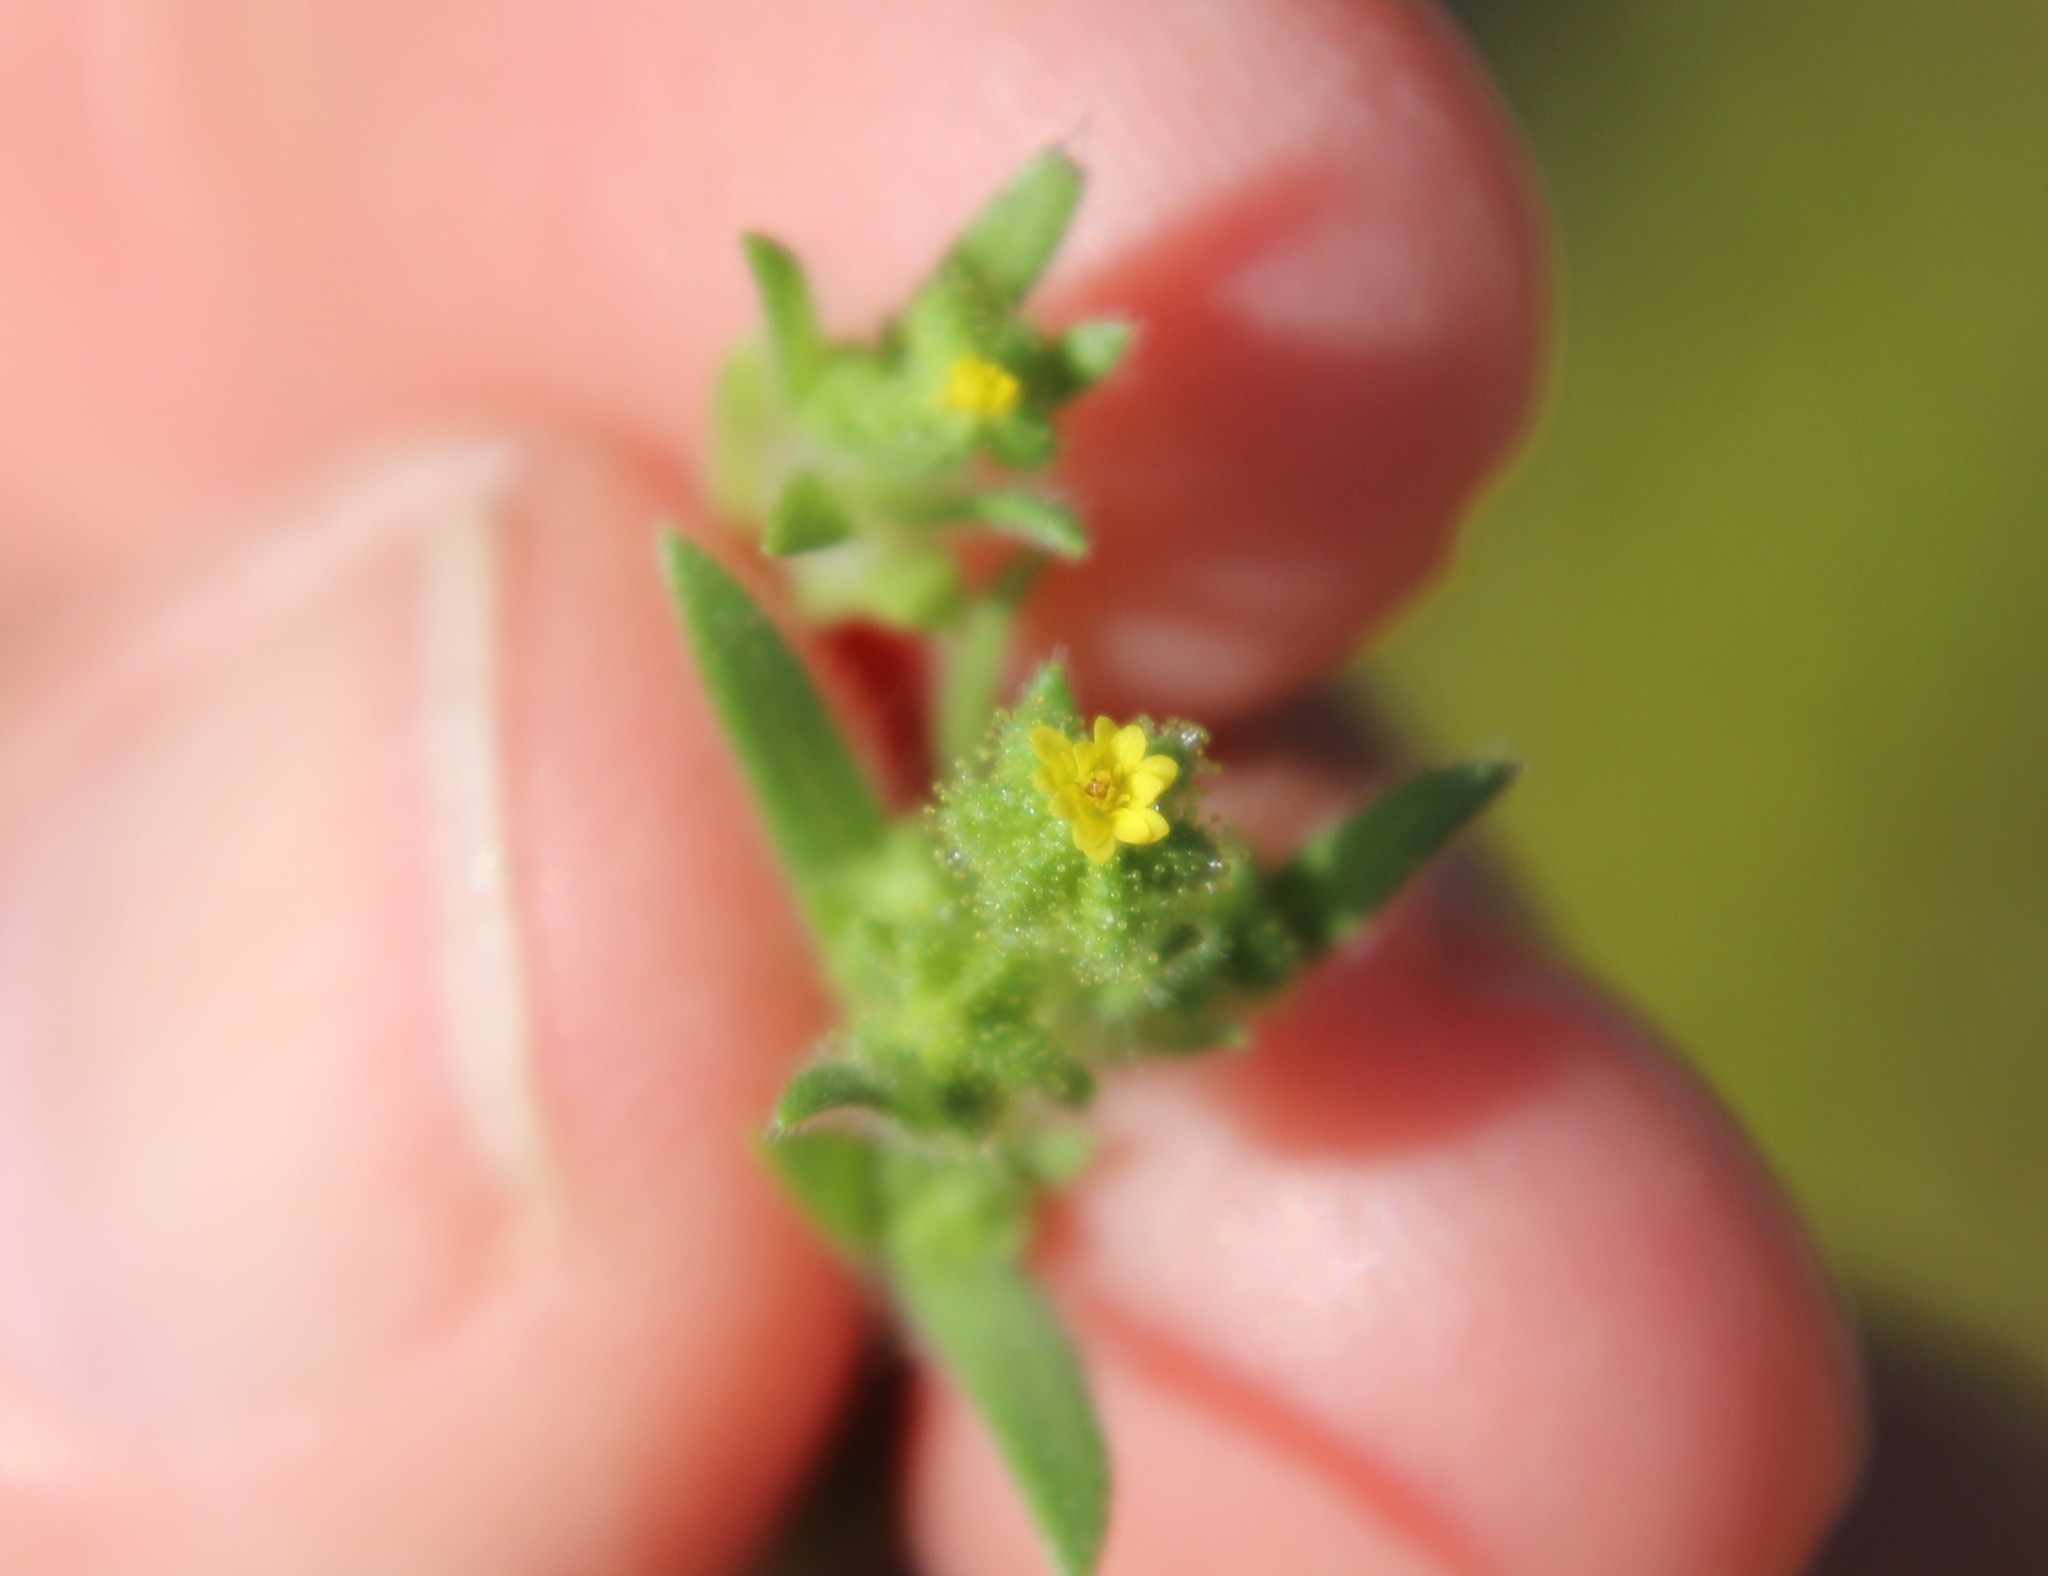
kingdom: Plantae
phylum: Tracheophyta
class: Magnoliopsida
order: Asterales
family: Asteraceae
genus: Madia
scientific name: Madia exigua
